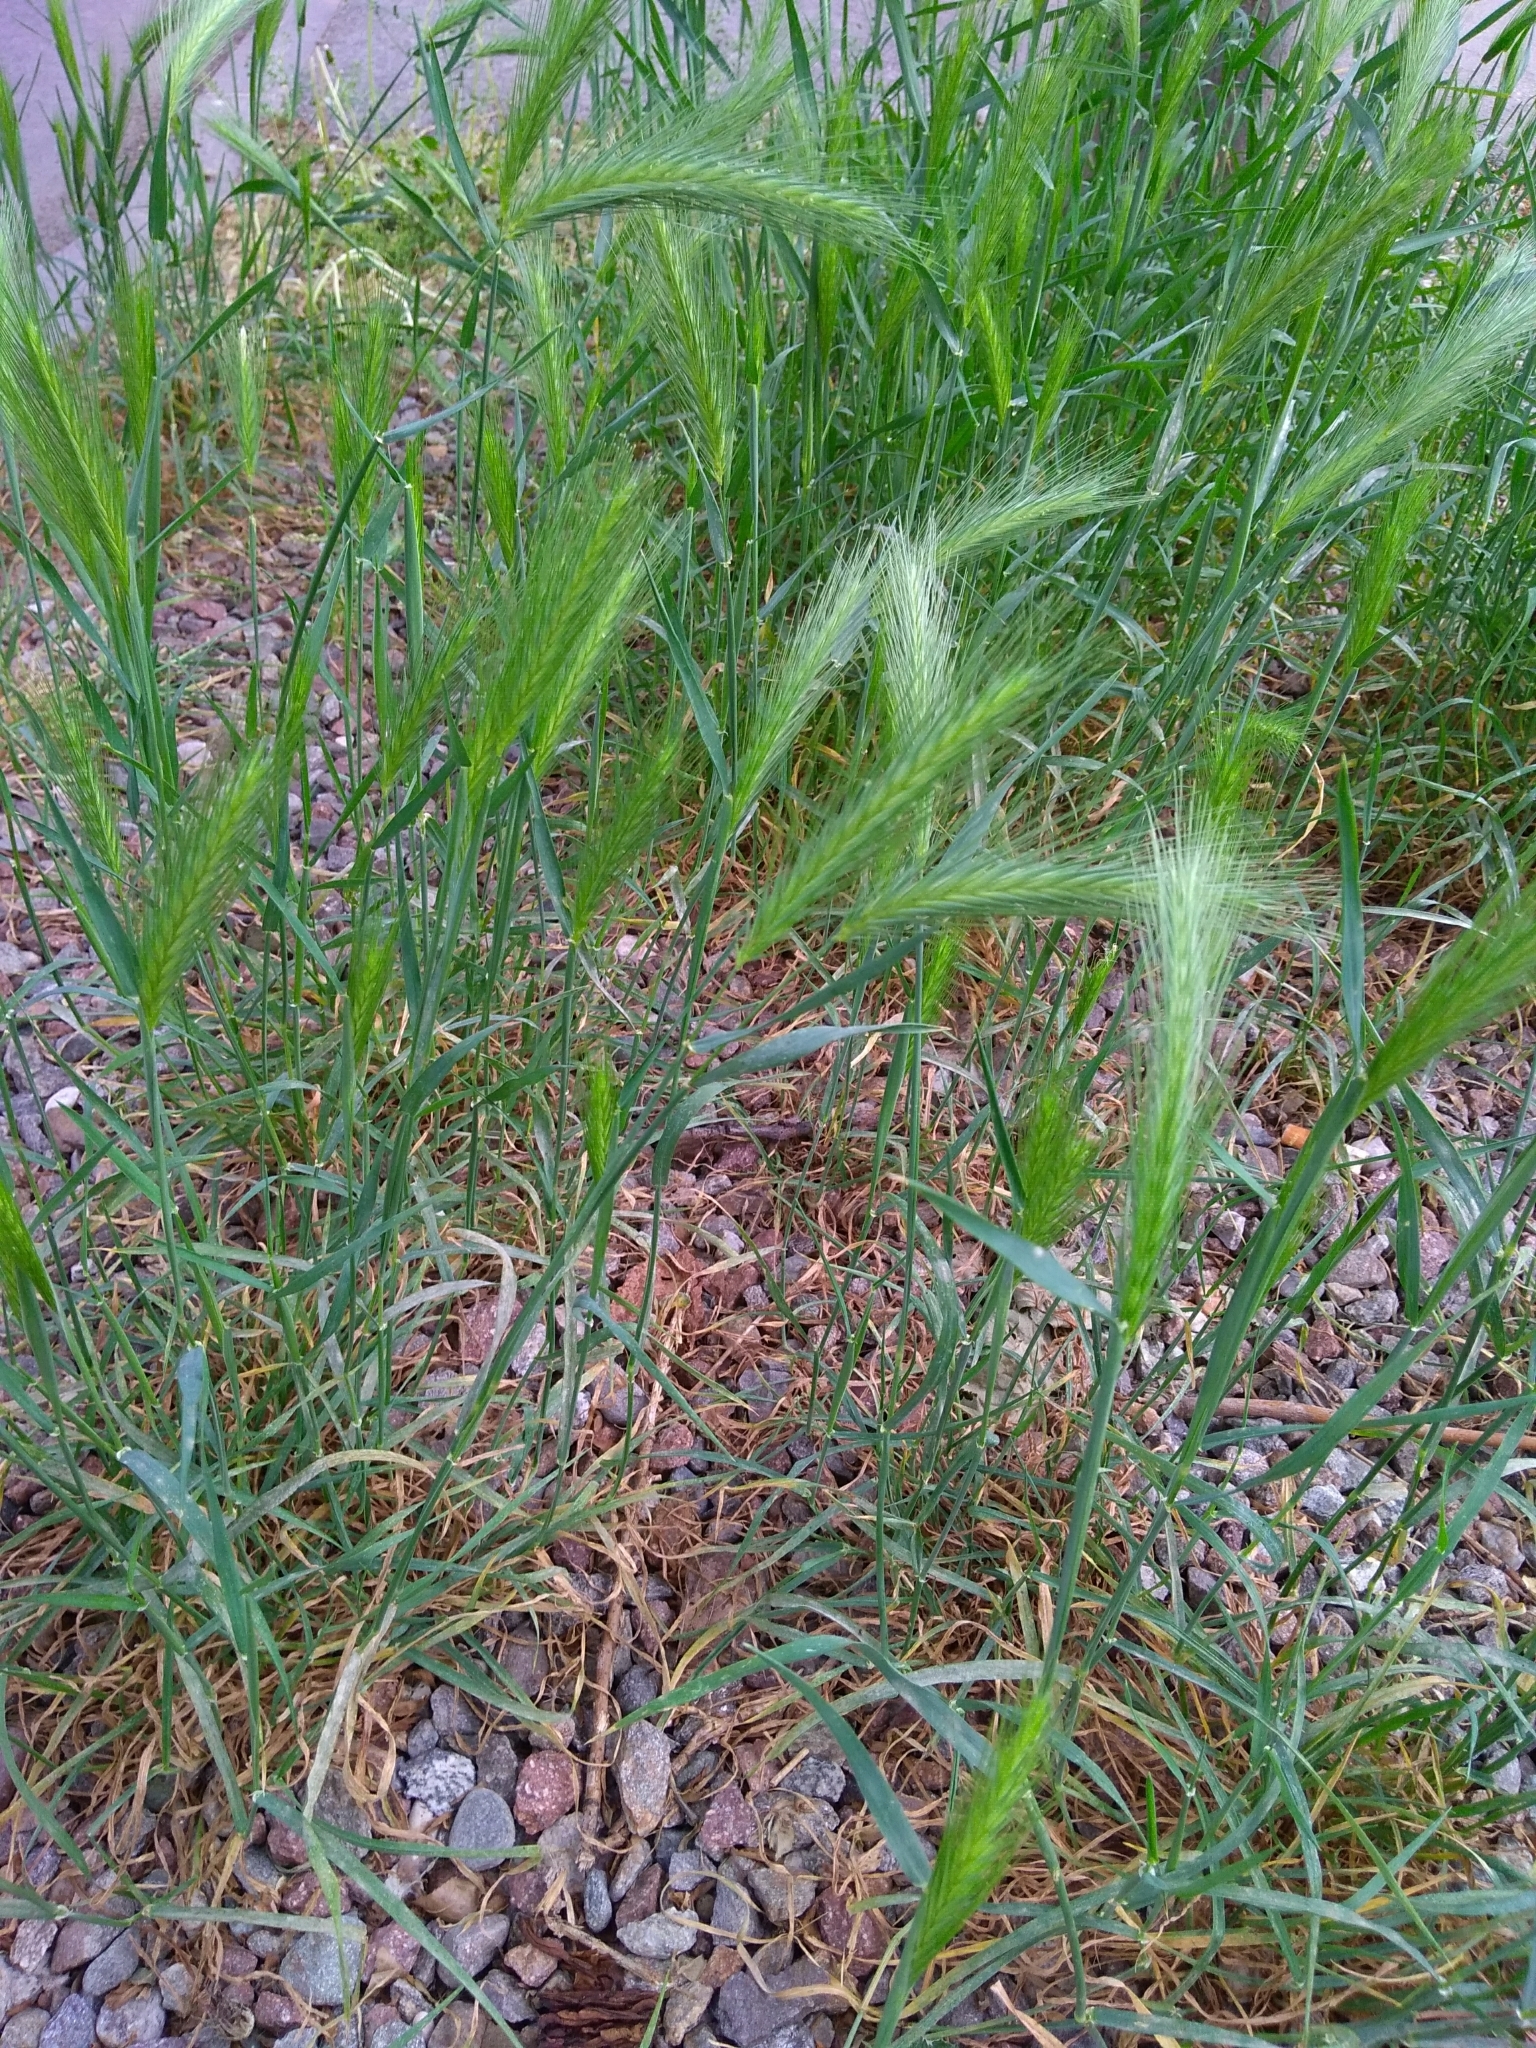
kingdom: Plantae
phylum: Tracheophyta
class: Liliopsida
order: Poales
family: Poaceae
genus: Hordeum
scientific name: Hordeum murinum
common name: Wall barley
